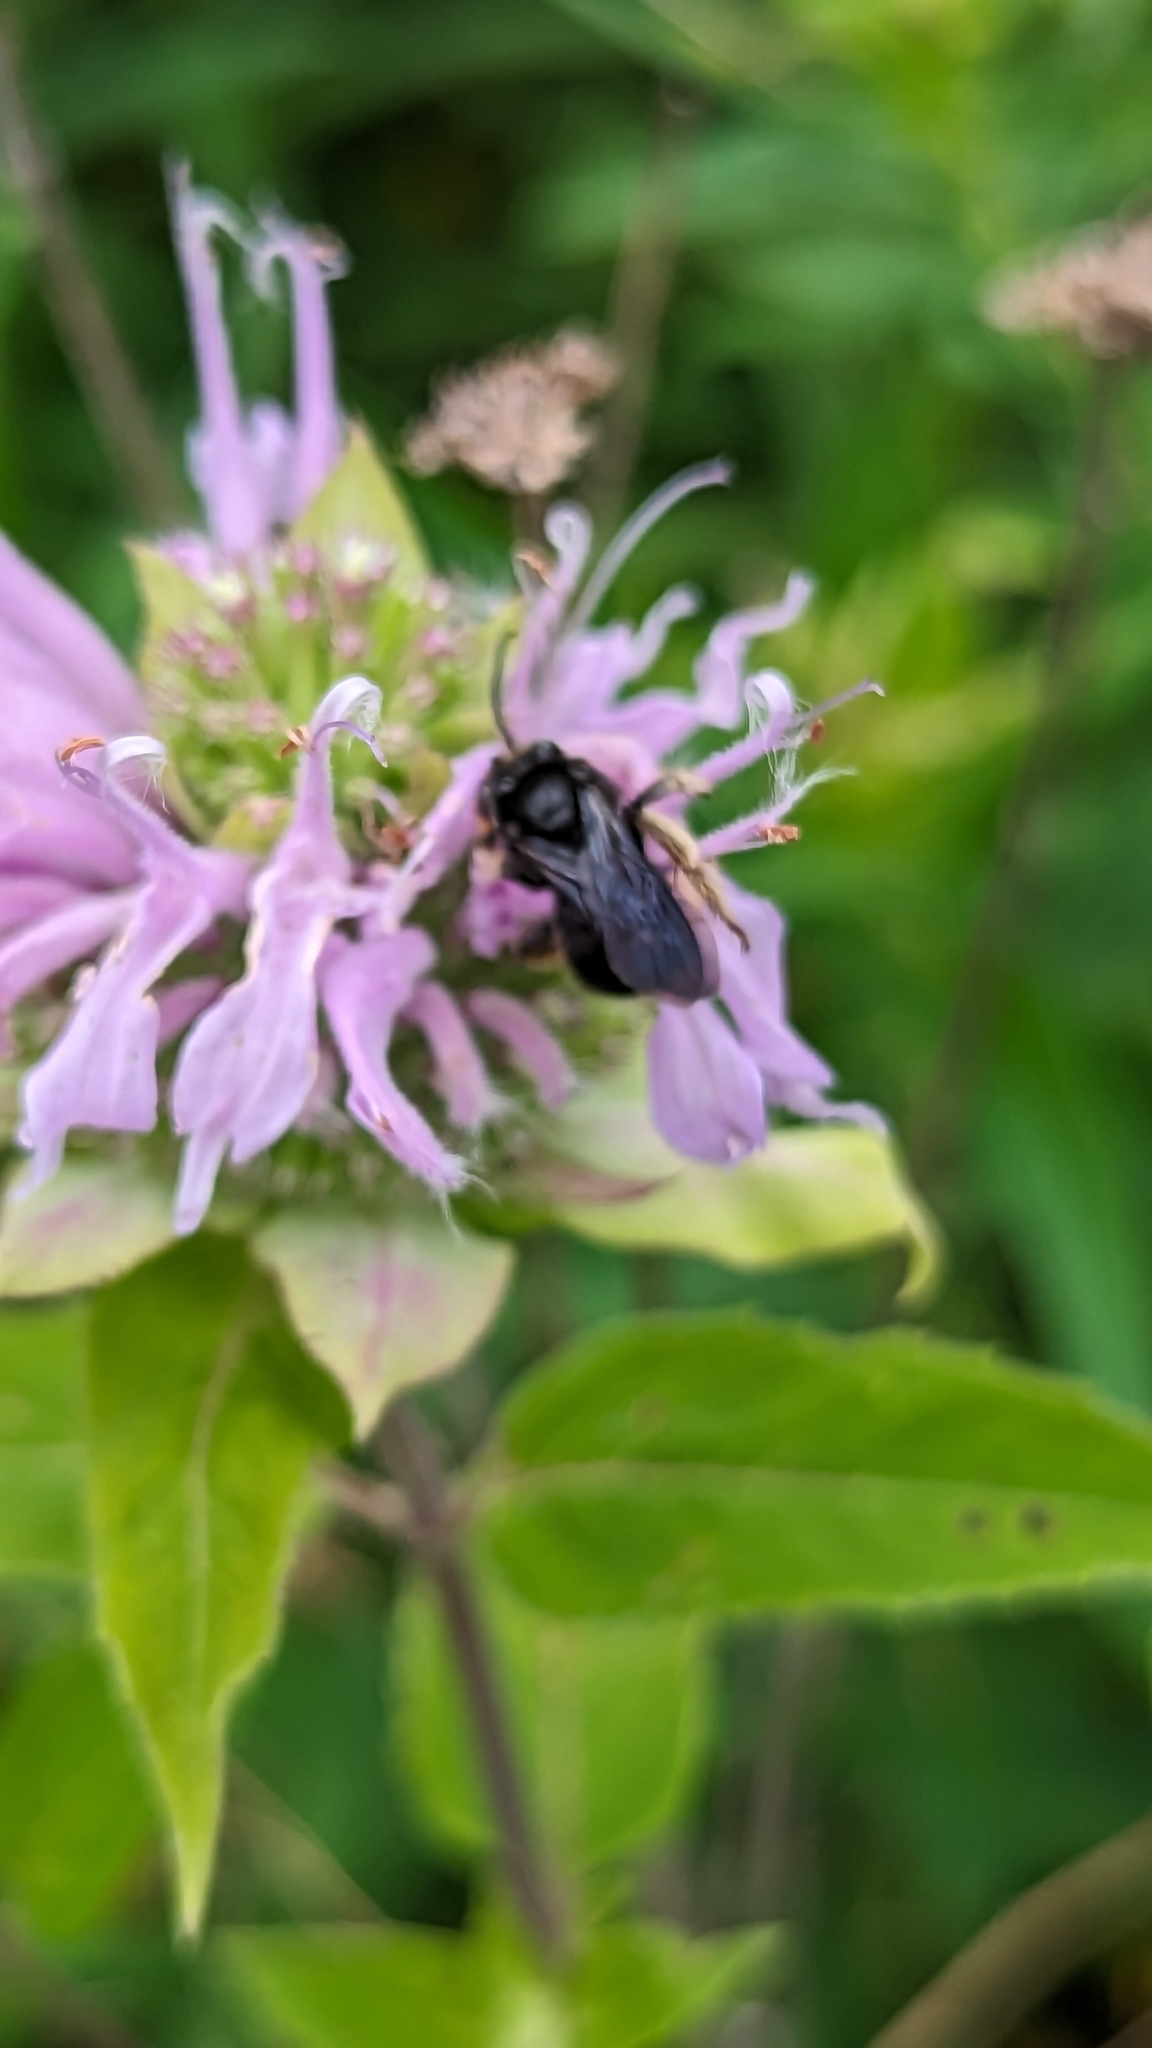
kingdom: Animalia
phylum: Arthropoda
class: Insecta
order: Hymenoptera
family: Apidae
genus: Melissodes
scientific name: Melissodes bimaculatus
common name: Two-spotted long-horned bee
